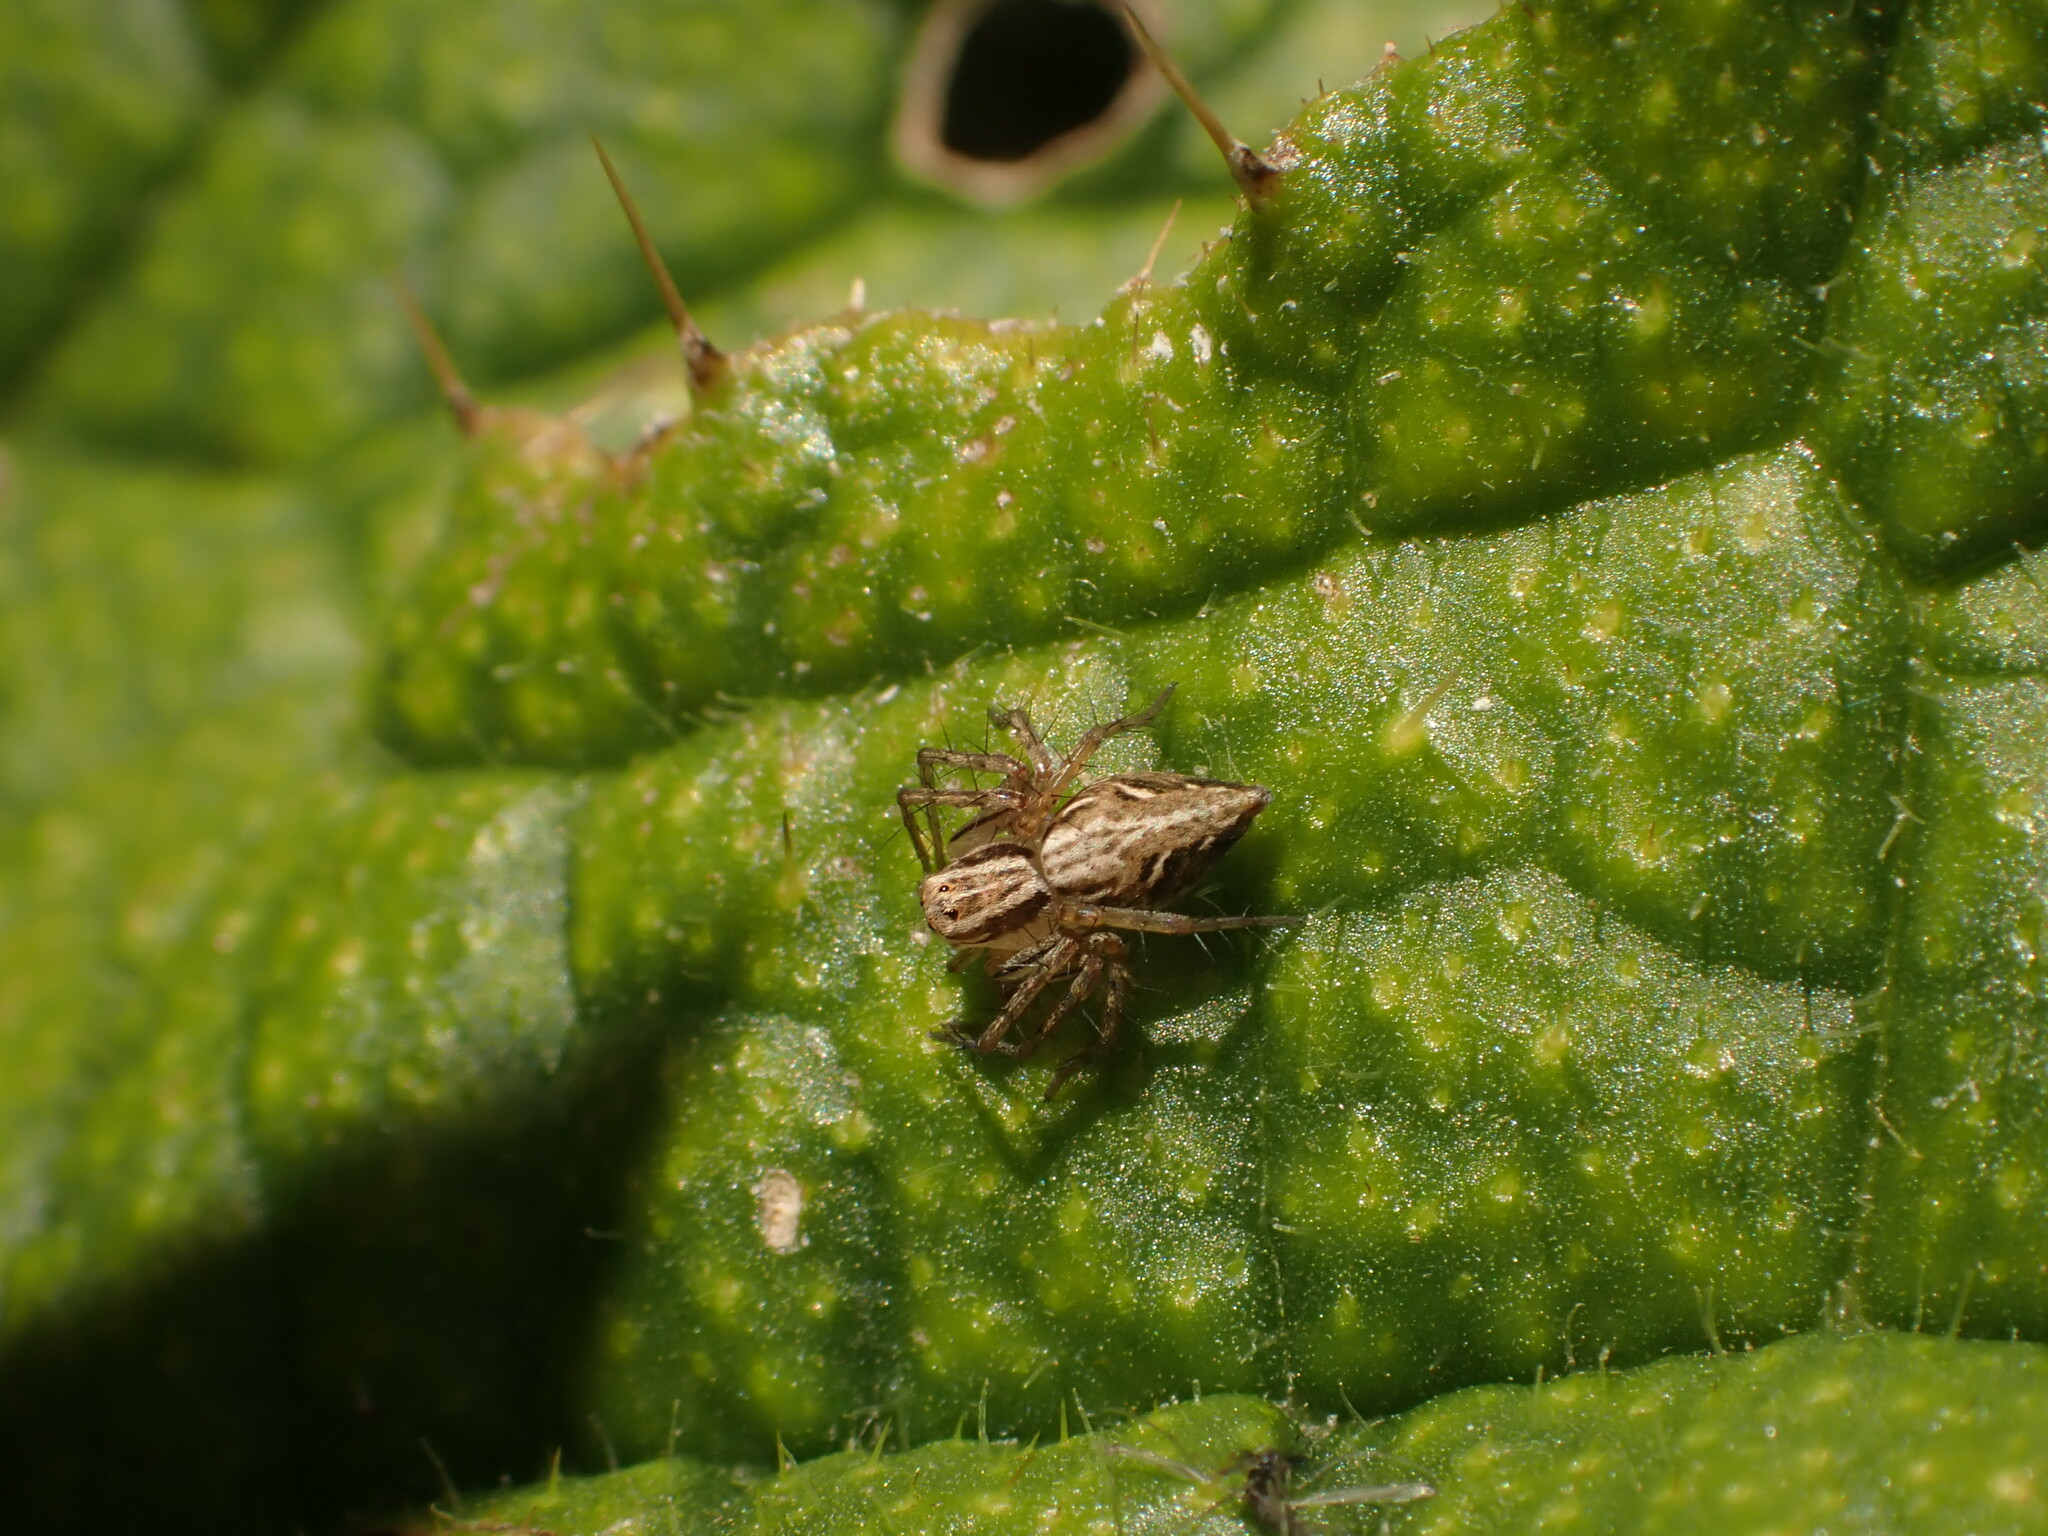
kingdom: Animalia
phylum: Arthropoda
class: Arachnida
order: Araneae
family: Oxyopidae
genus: Oxyopes
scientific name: Oxyopes gracilipes
